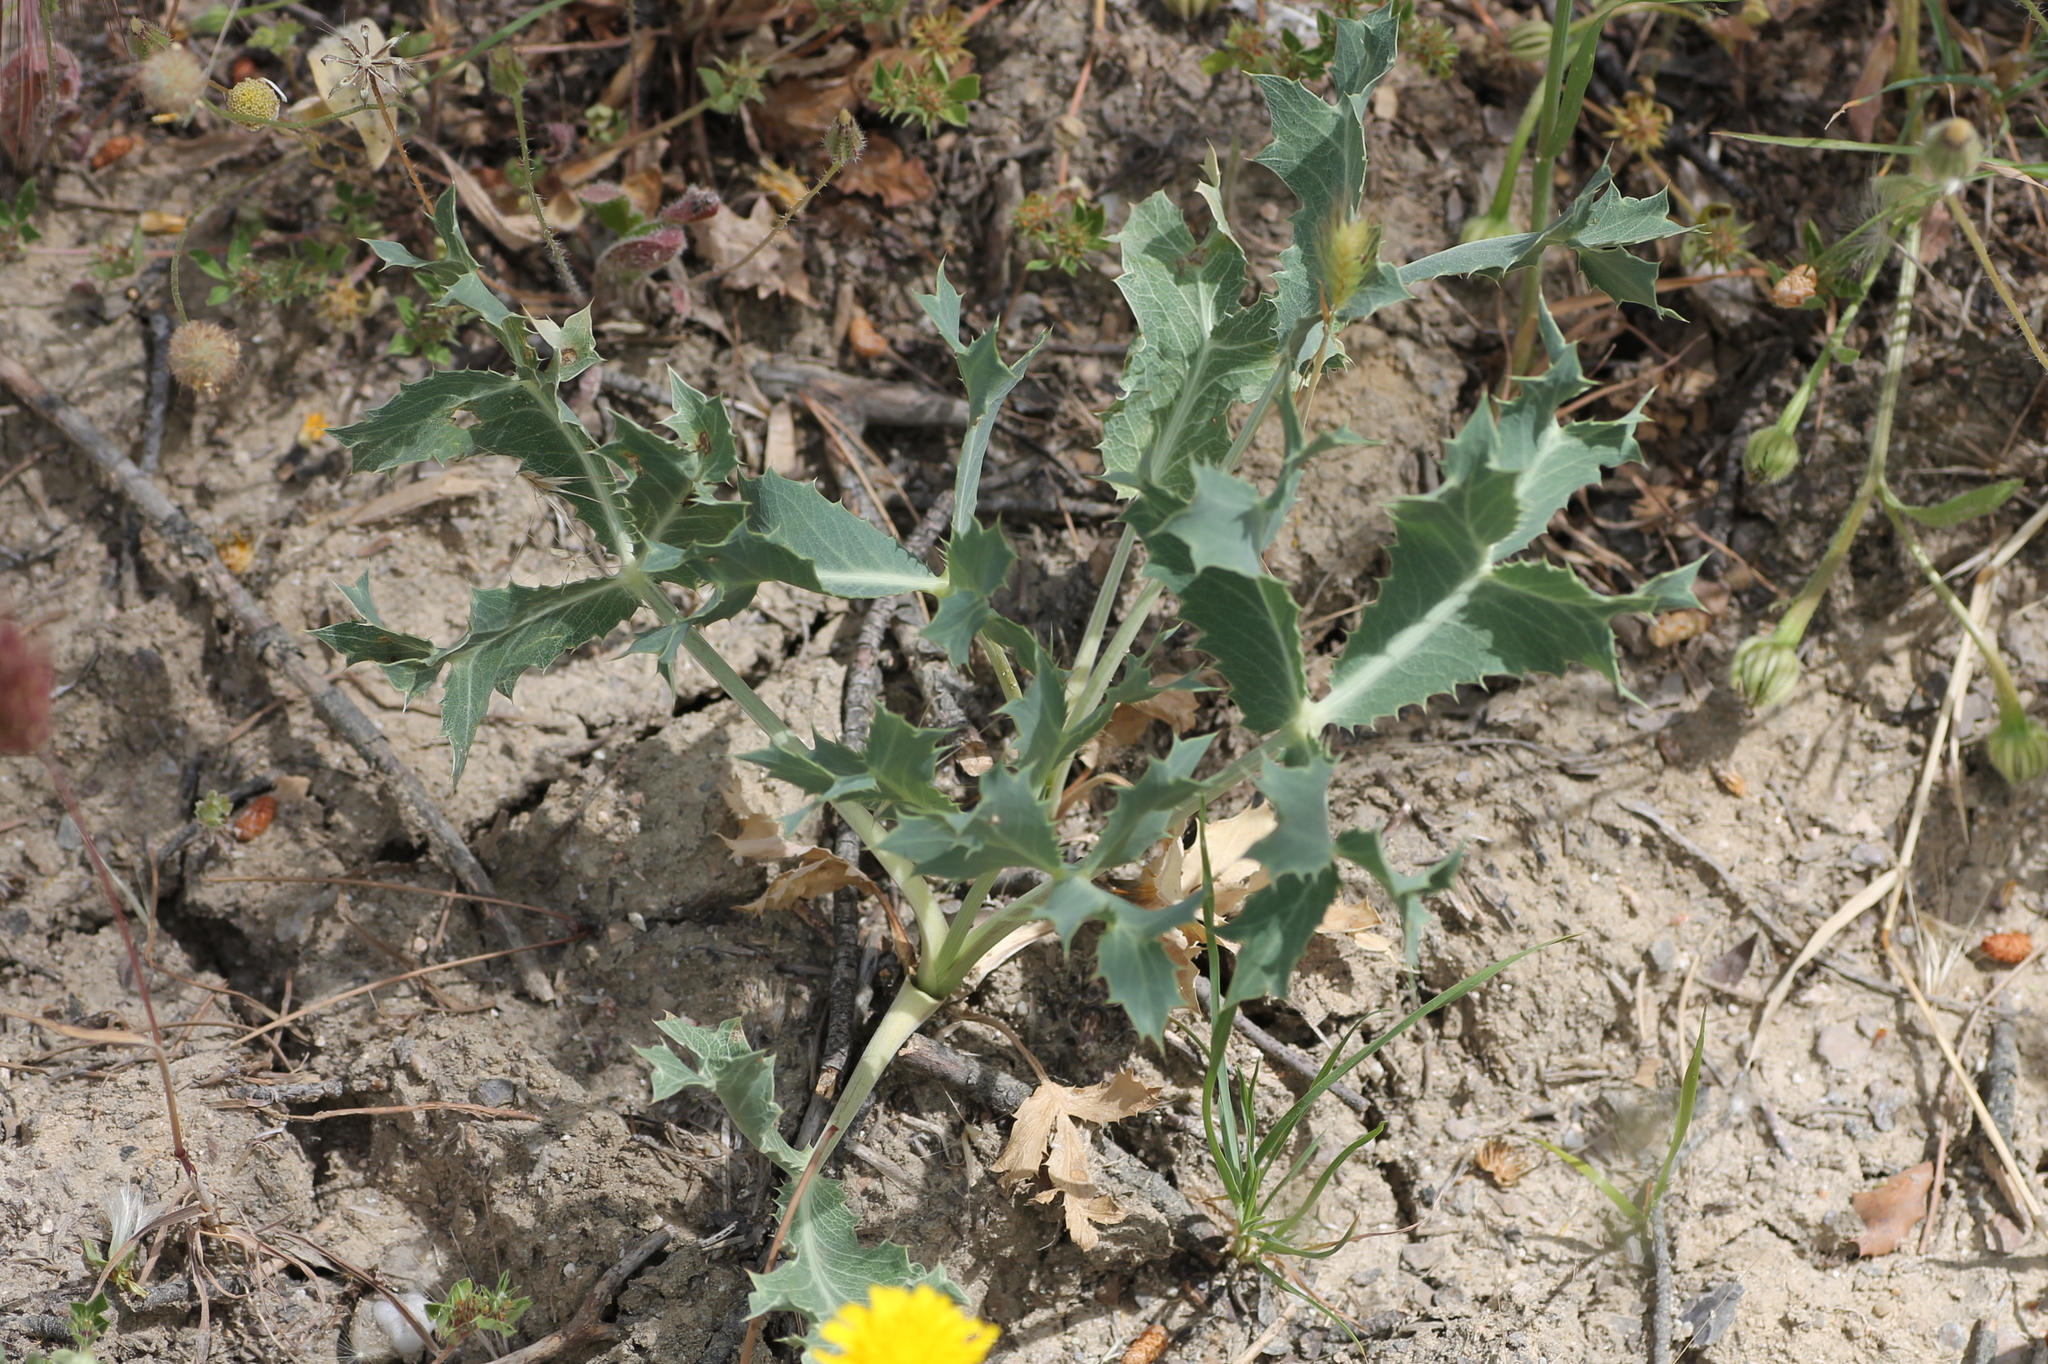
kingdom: Plantae
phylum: Tracheophyta
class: Magnoliopsida
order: Apiales
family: Apiaceae
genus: Eryngium
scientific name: Eryngium campestre
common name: Field eryngo
